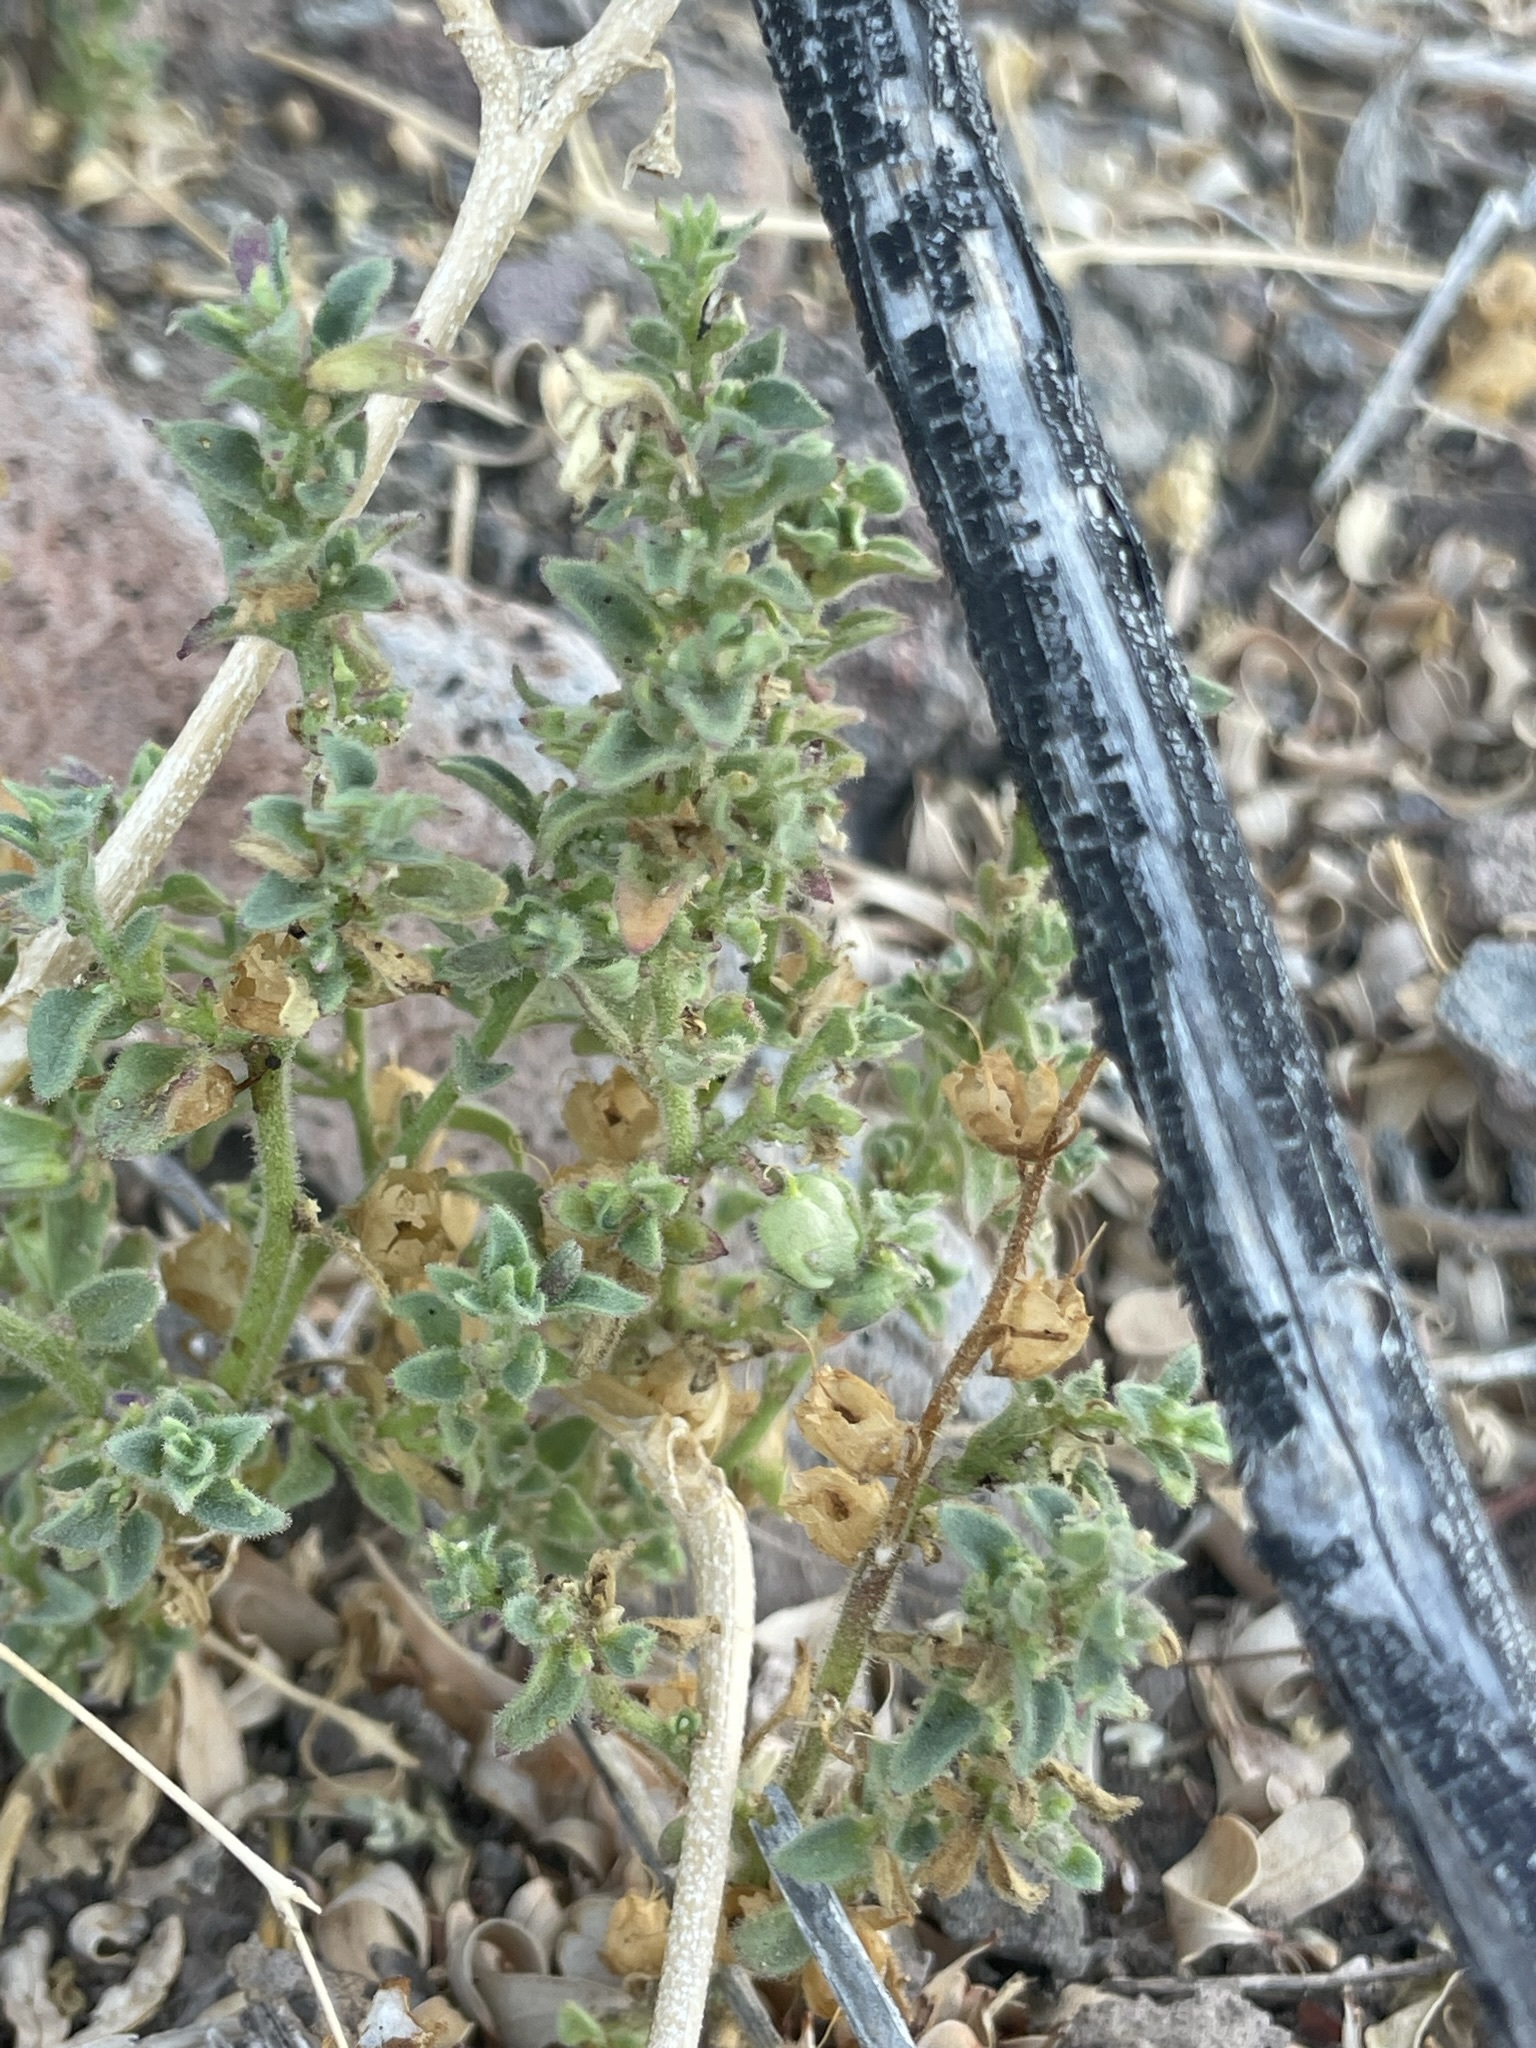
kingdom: Plantae
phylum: Tracheophyta
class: Magnoliopsida
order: Lamiales
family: Plantaginaceae
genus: Pseudorontium
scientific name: Pseudorontium cyathiferum
